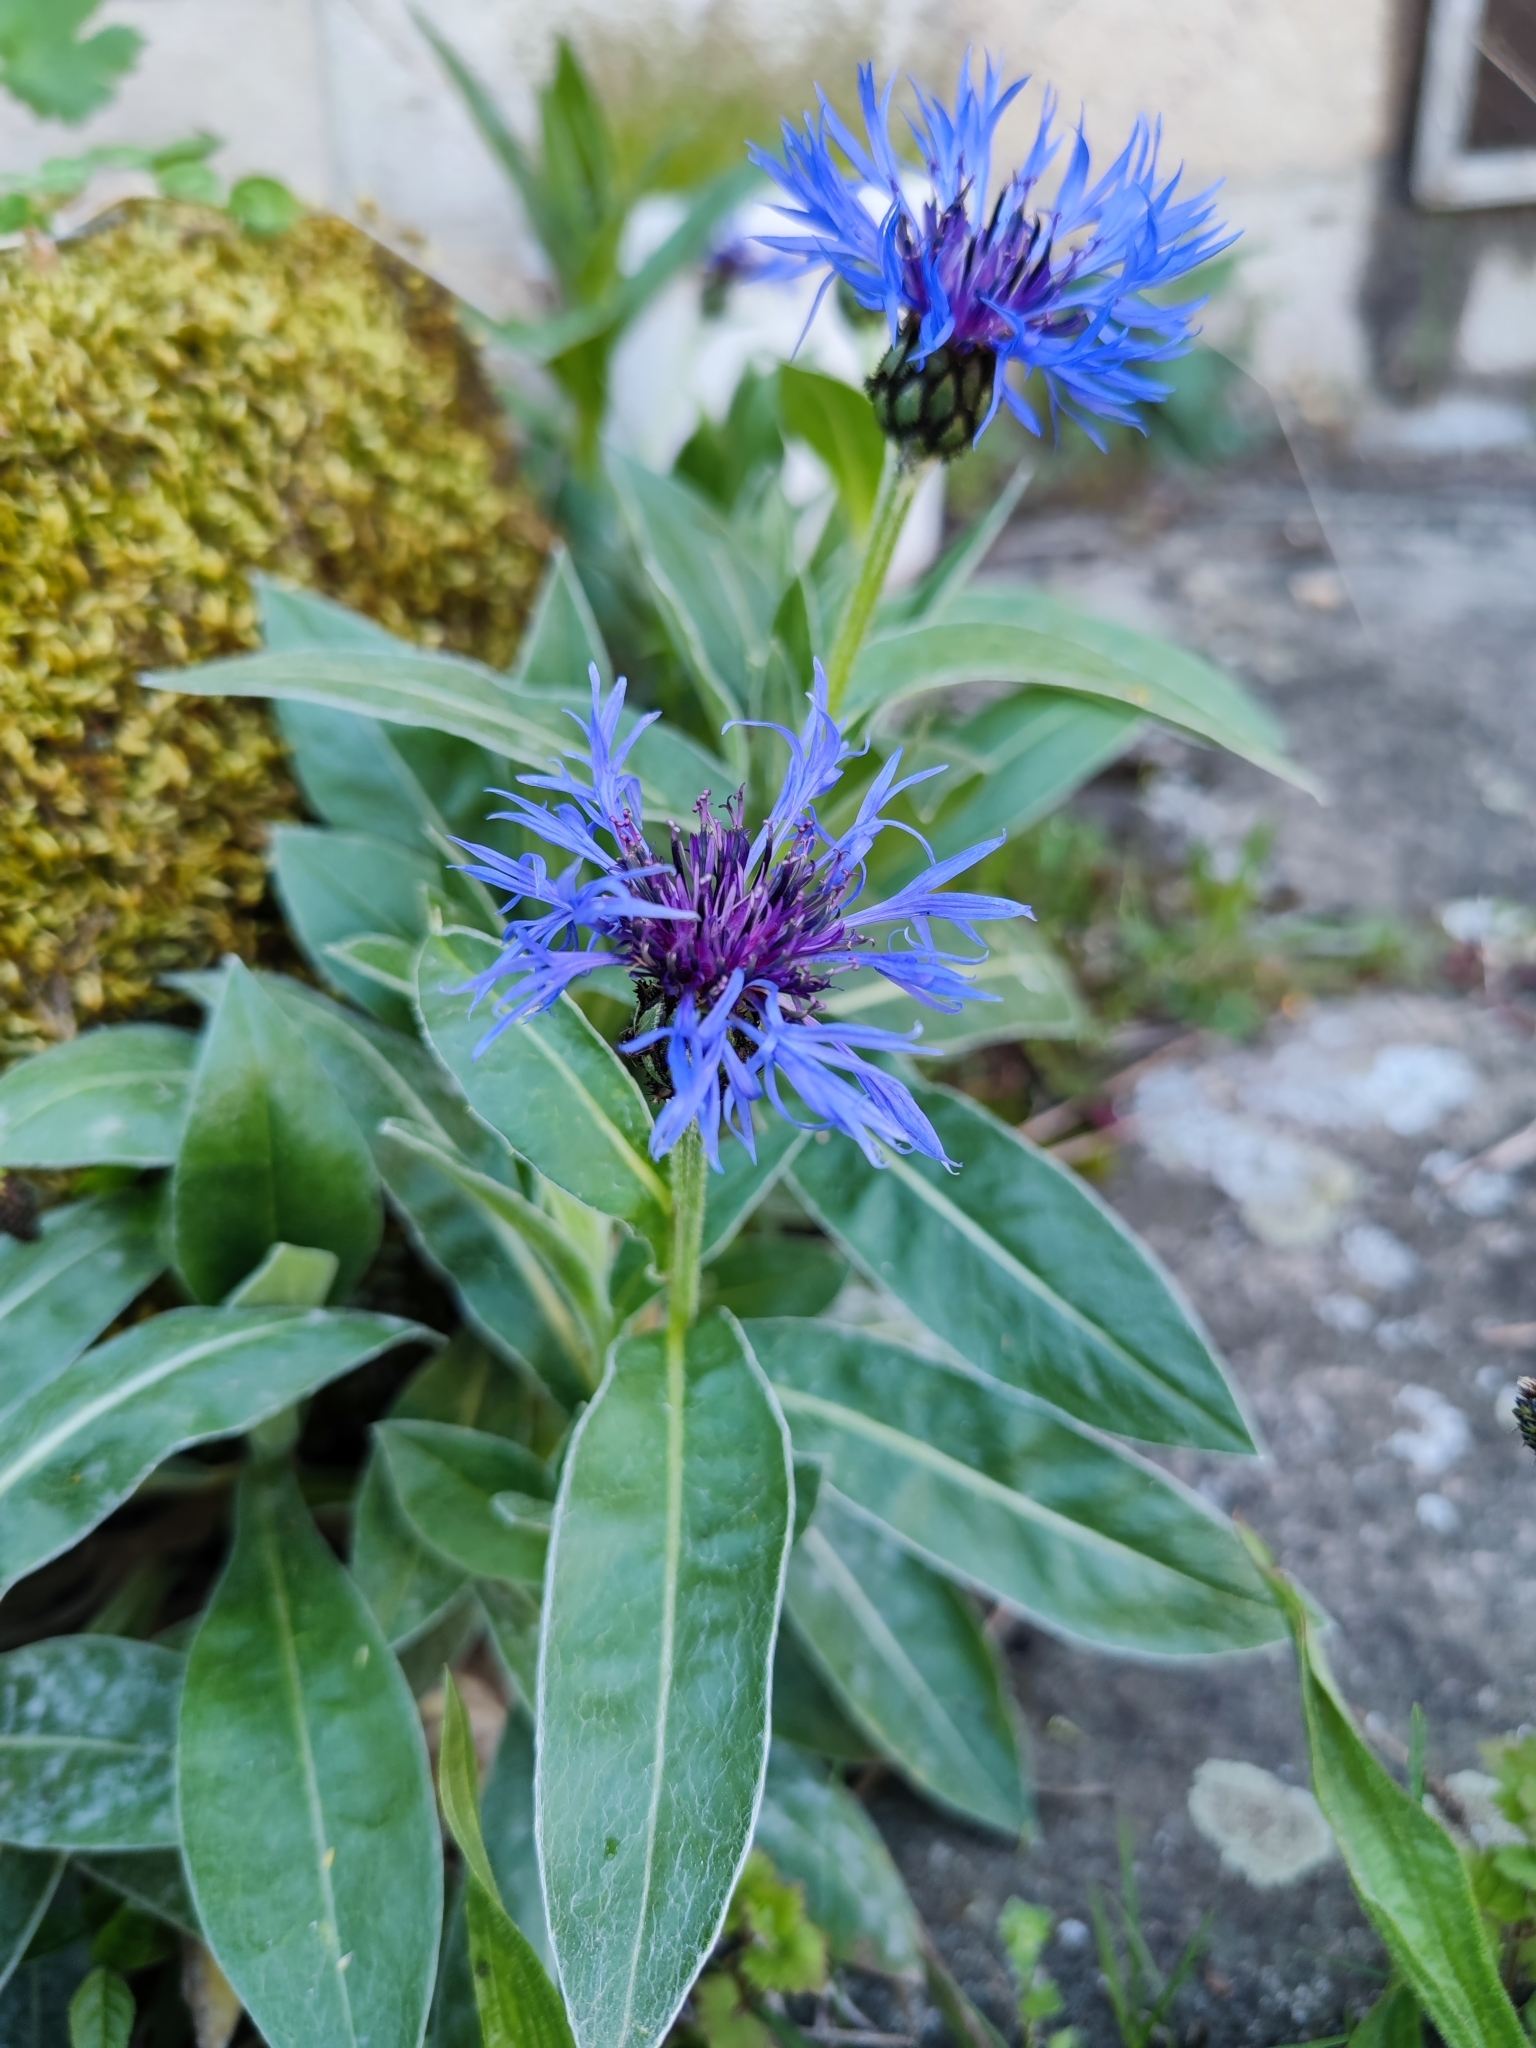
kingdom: Plantae
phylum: Tracheophyta
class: Magnoliopsida
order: Asterales
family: Asteraceae
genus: Centaurea
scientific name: Centaurea montana
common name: Perennial cornflower
